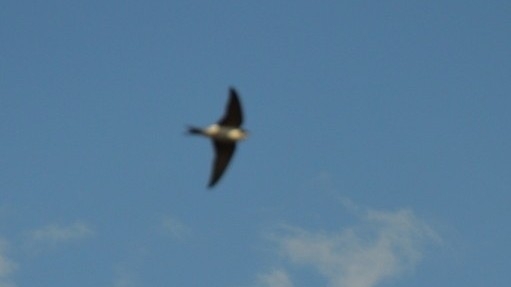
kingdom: Animalia
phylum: Chordata
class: Aves
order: Passeriformes
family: Hirundinidae
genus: Delichon
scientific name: Delichon urbicum
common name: Common house martin
